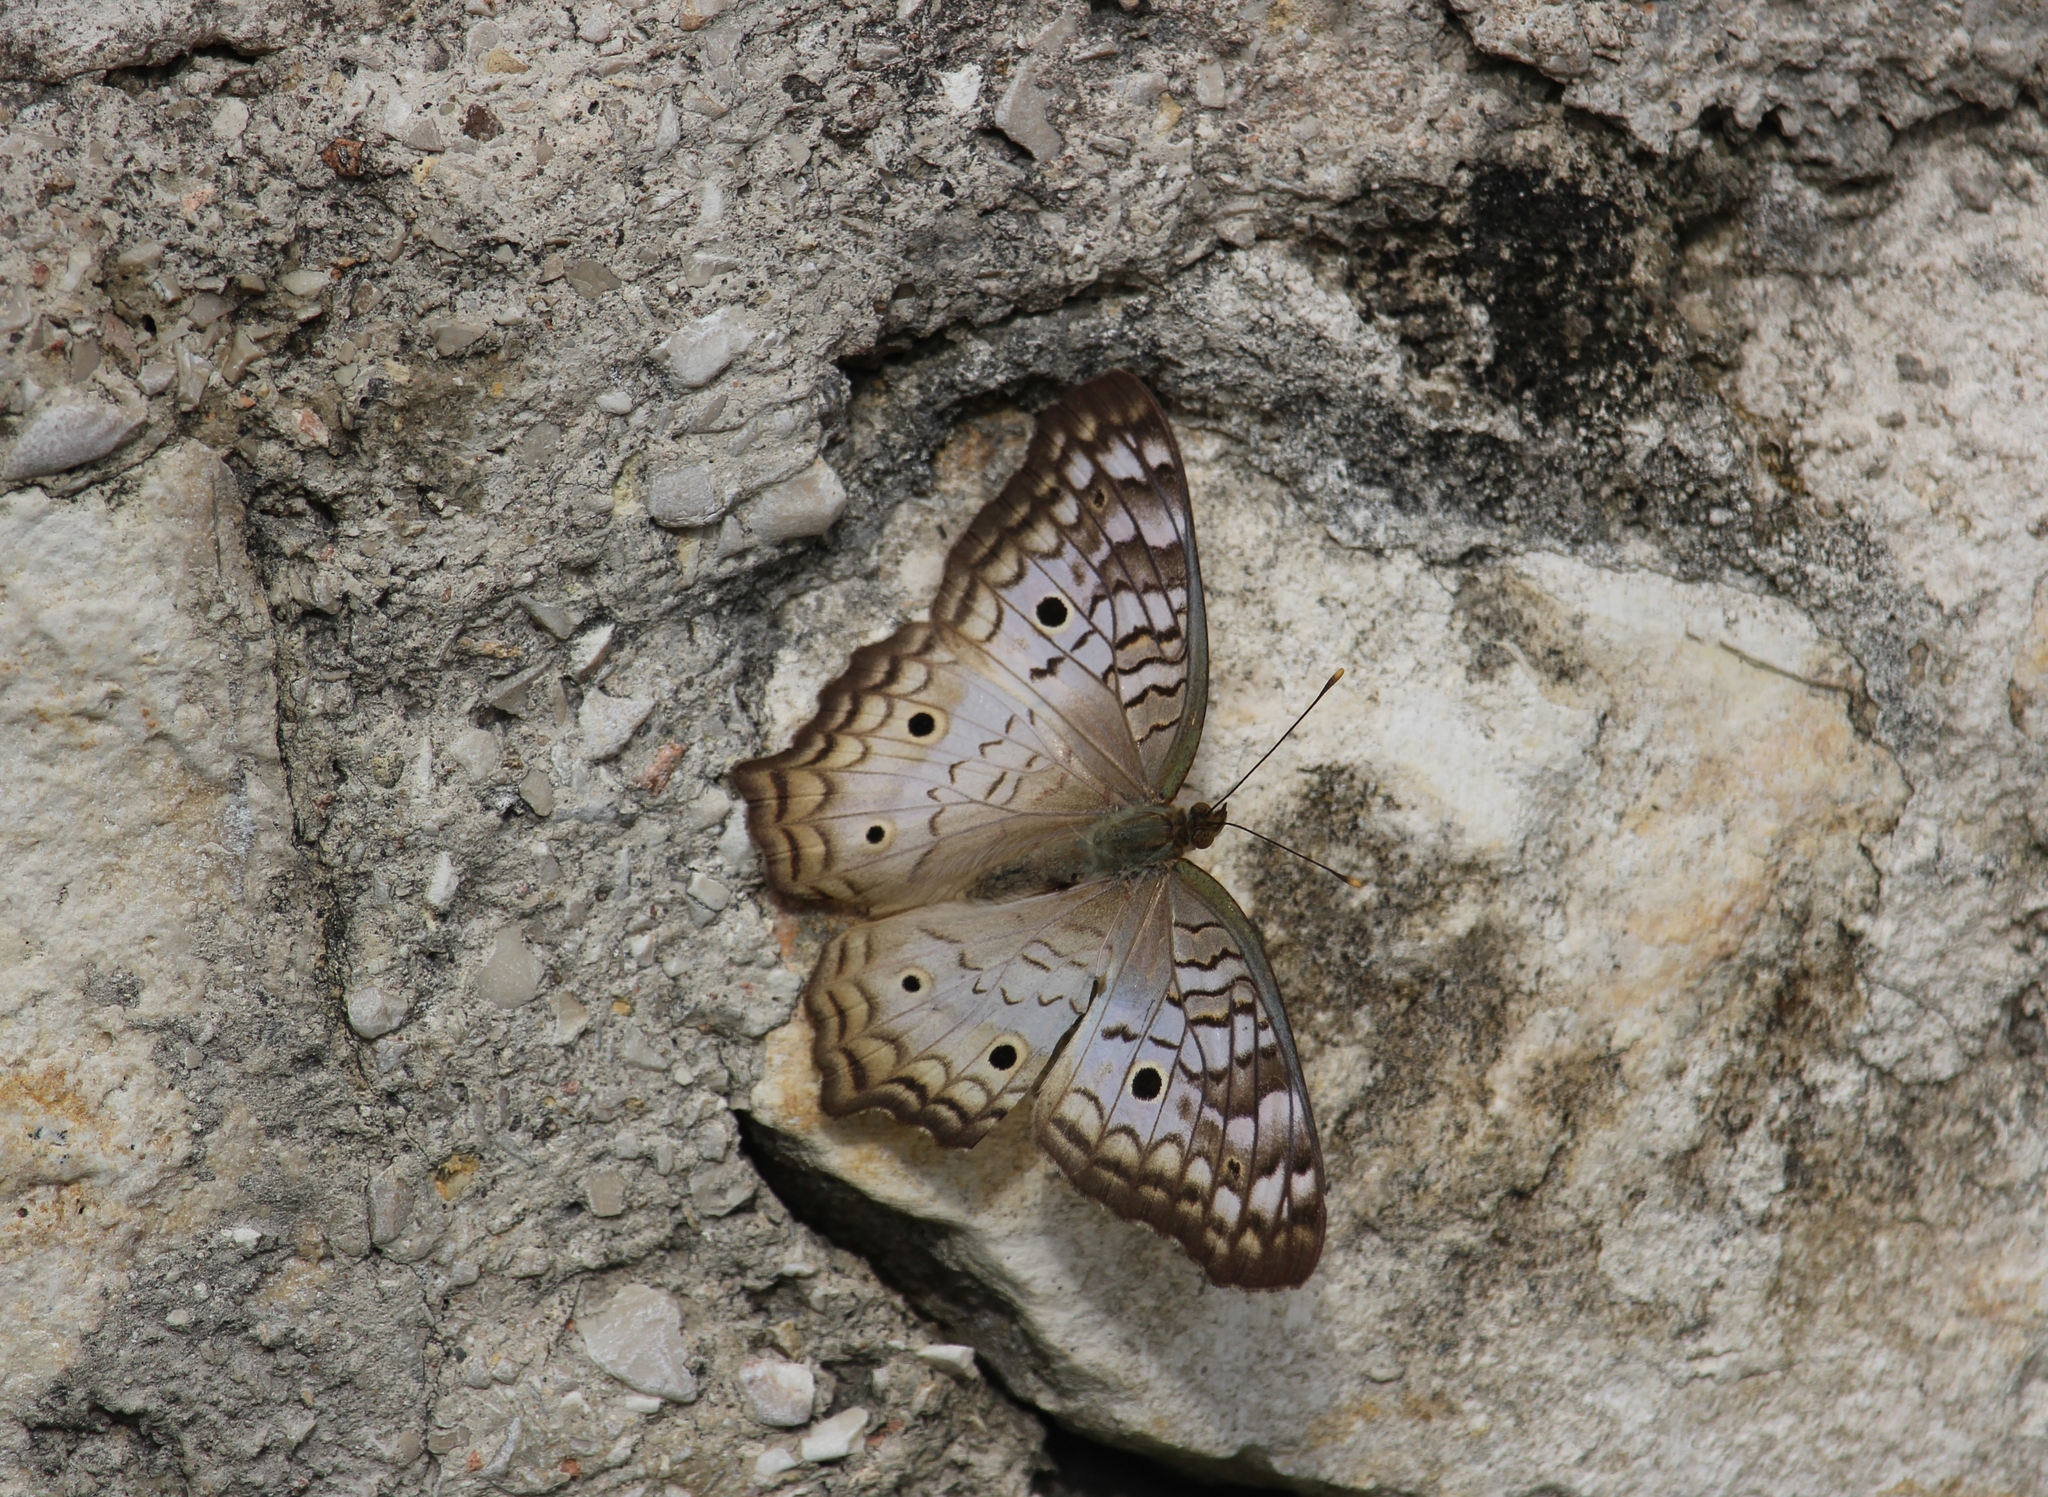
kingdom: Animalia
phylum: Arthropoda
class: Insecta
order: Lepidoptera
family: Nymphalidae
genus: Anartia
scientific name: Anartia jatrophae
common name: White peacock
